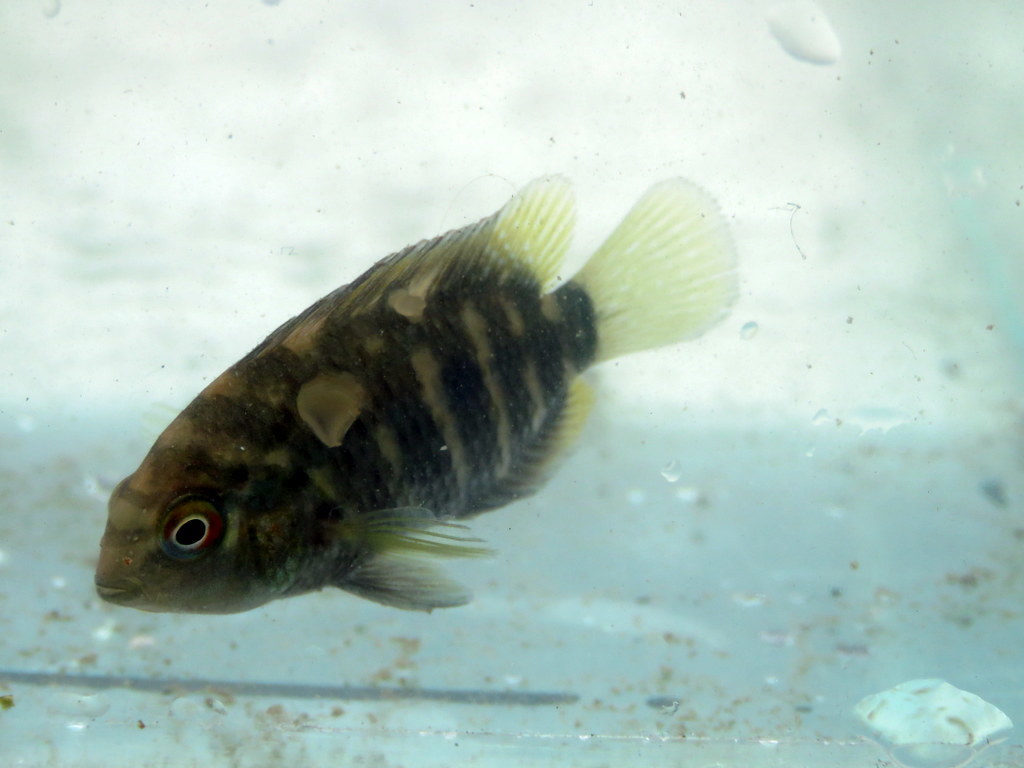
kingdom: Animalia
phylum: Chordata
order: Perciformes
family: Cichlidae
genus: Australoheros
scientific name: Australoheros facetus
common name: Chameleon cichlid
